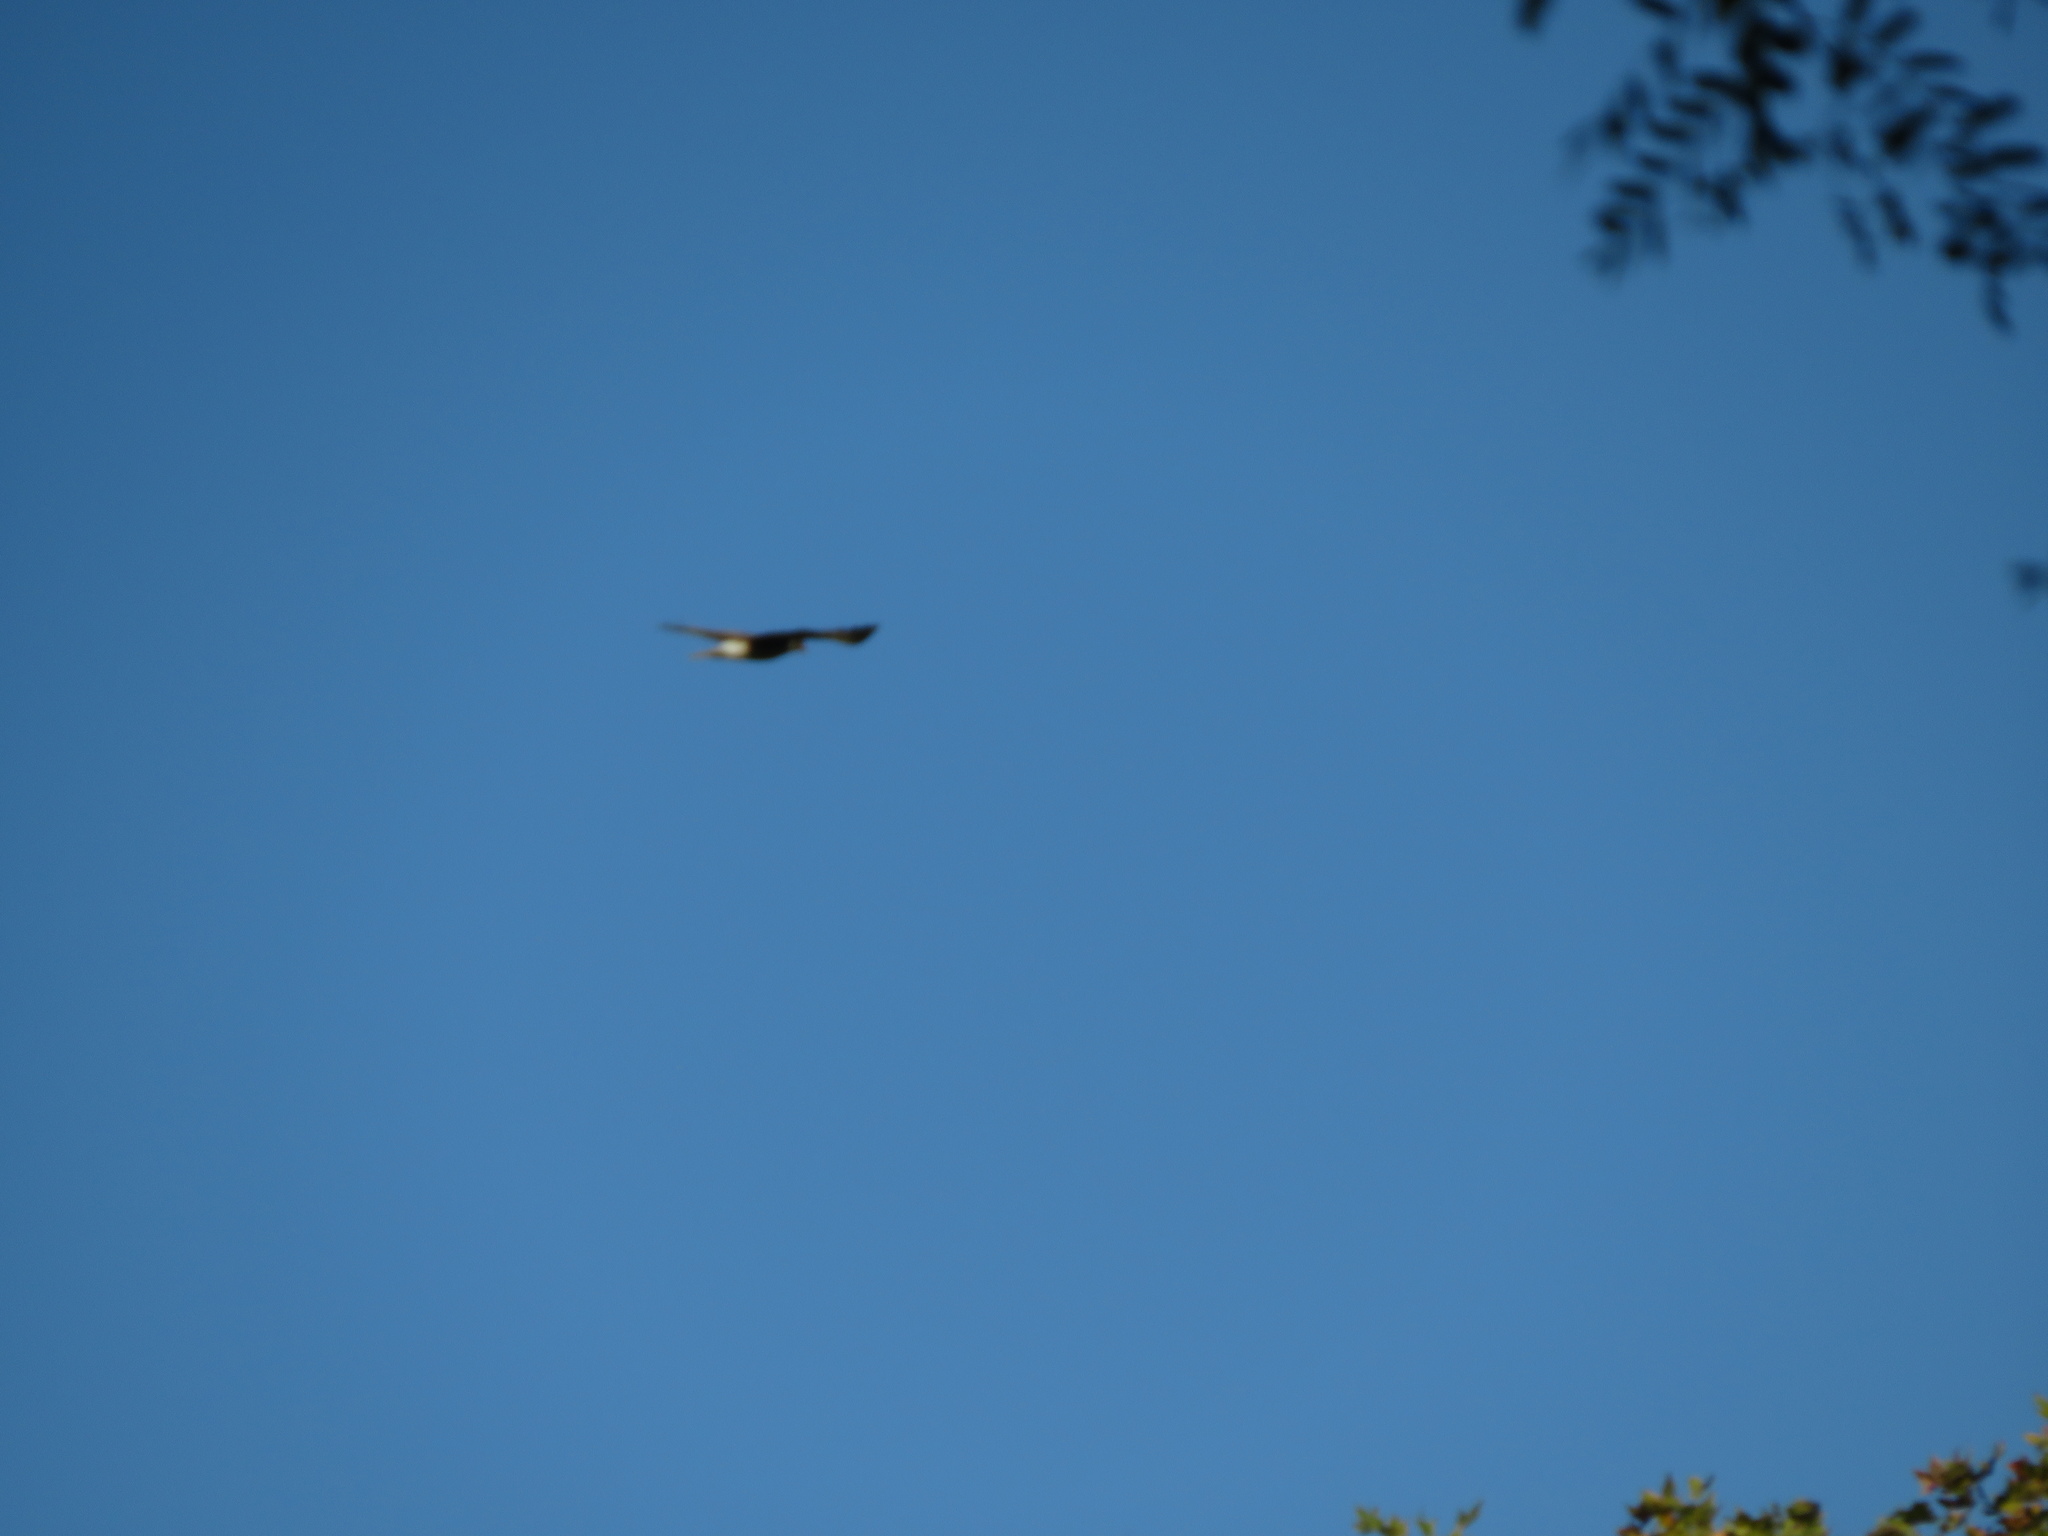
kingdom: Animalia
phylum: Chordata
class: Aves
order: Falconiformes
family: Falconidae
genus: Daptrius
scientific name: Daptrius
